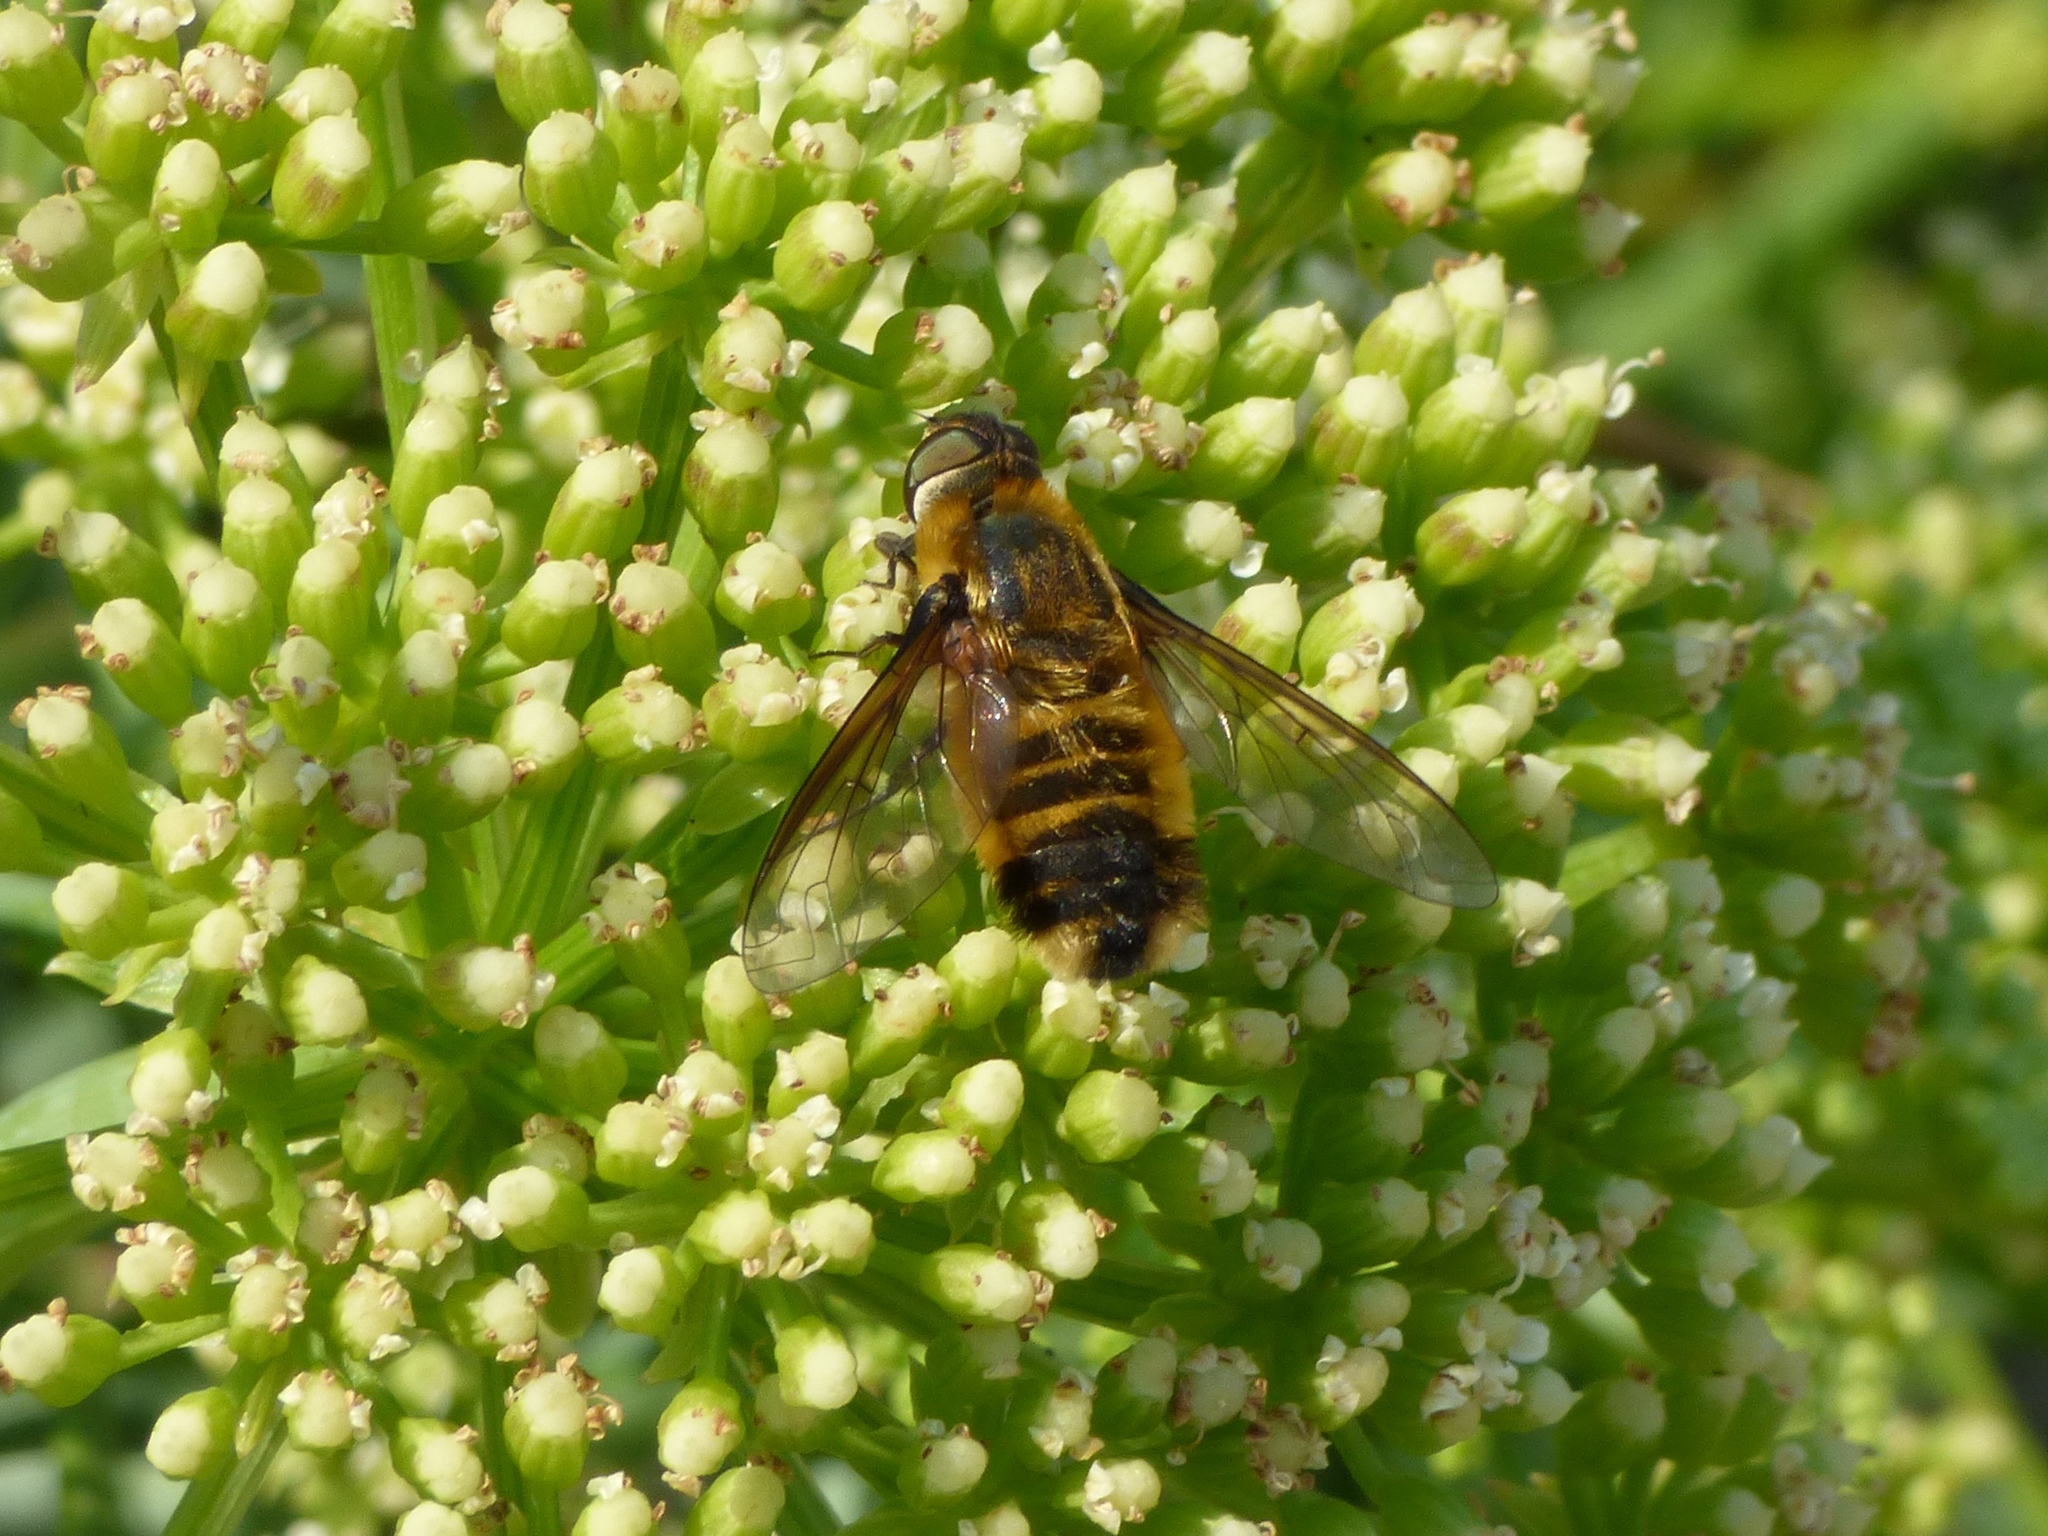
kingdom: Animalia
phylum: Arthropoda
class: Insecta
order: Diptera
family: Bombyliidae
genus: Villa
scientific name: Villa modesta
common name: Dune villa
